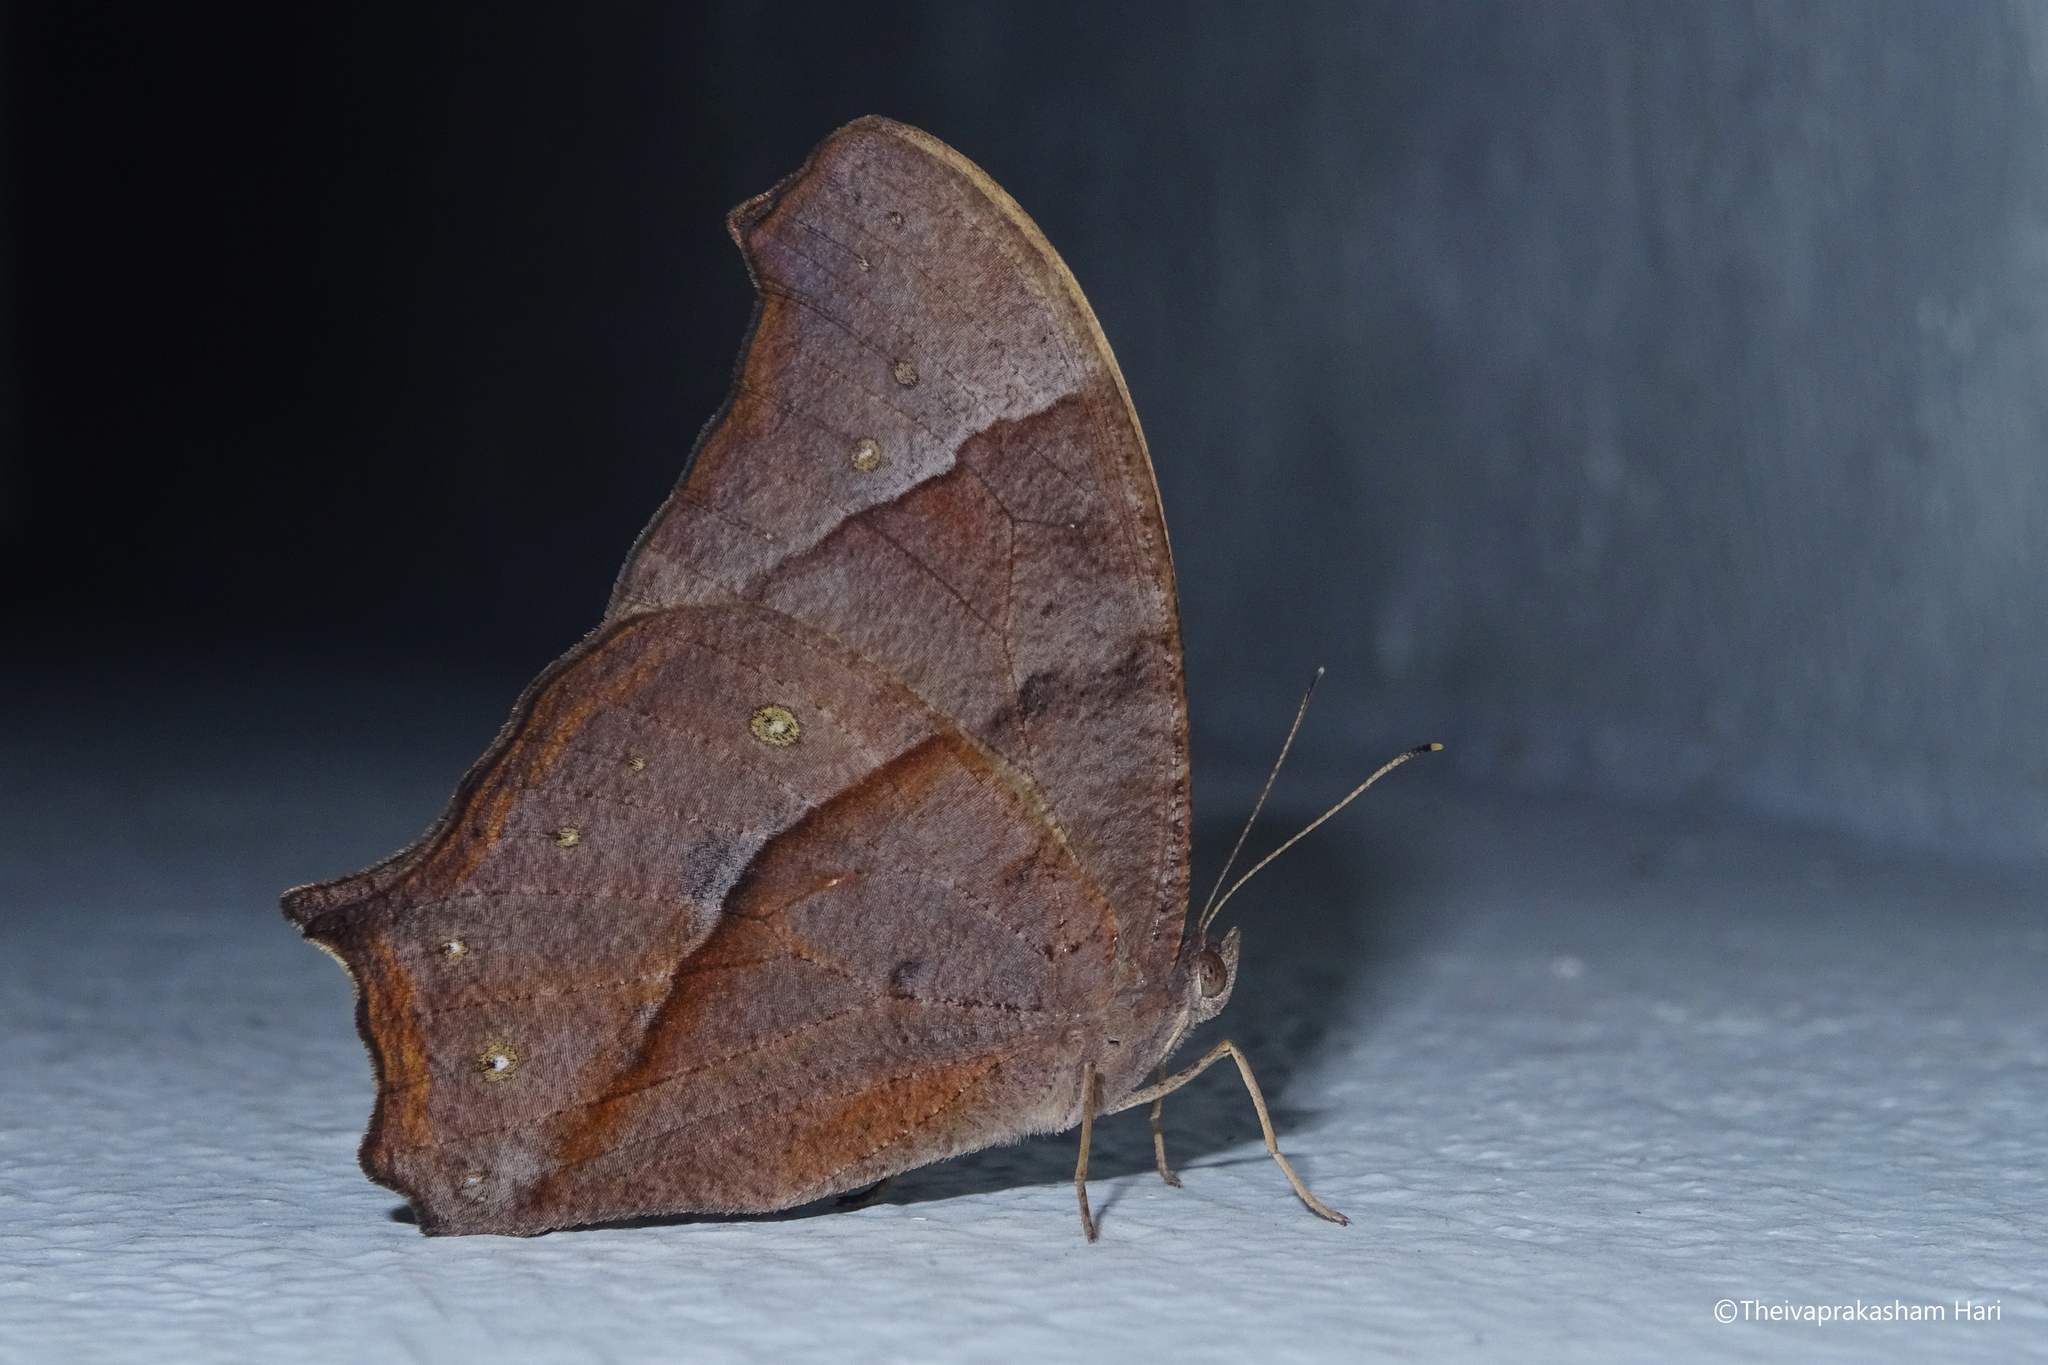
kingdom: Animalia
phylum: Arthropoda
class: Insecta
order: Lepidoptera
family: Nymphalidae
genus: Melanitis
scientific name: Melanitis leda
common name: Twilight brown
